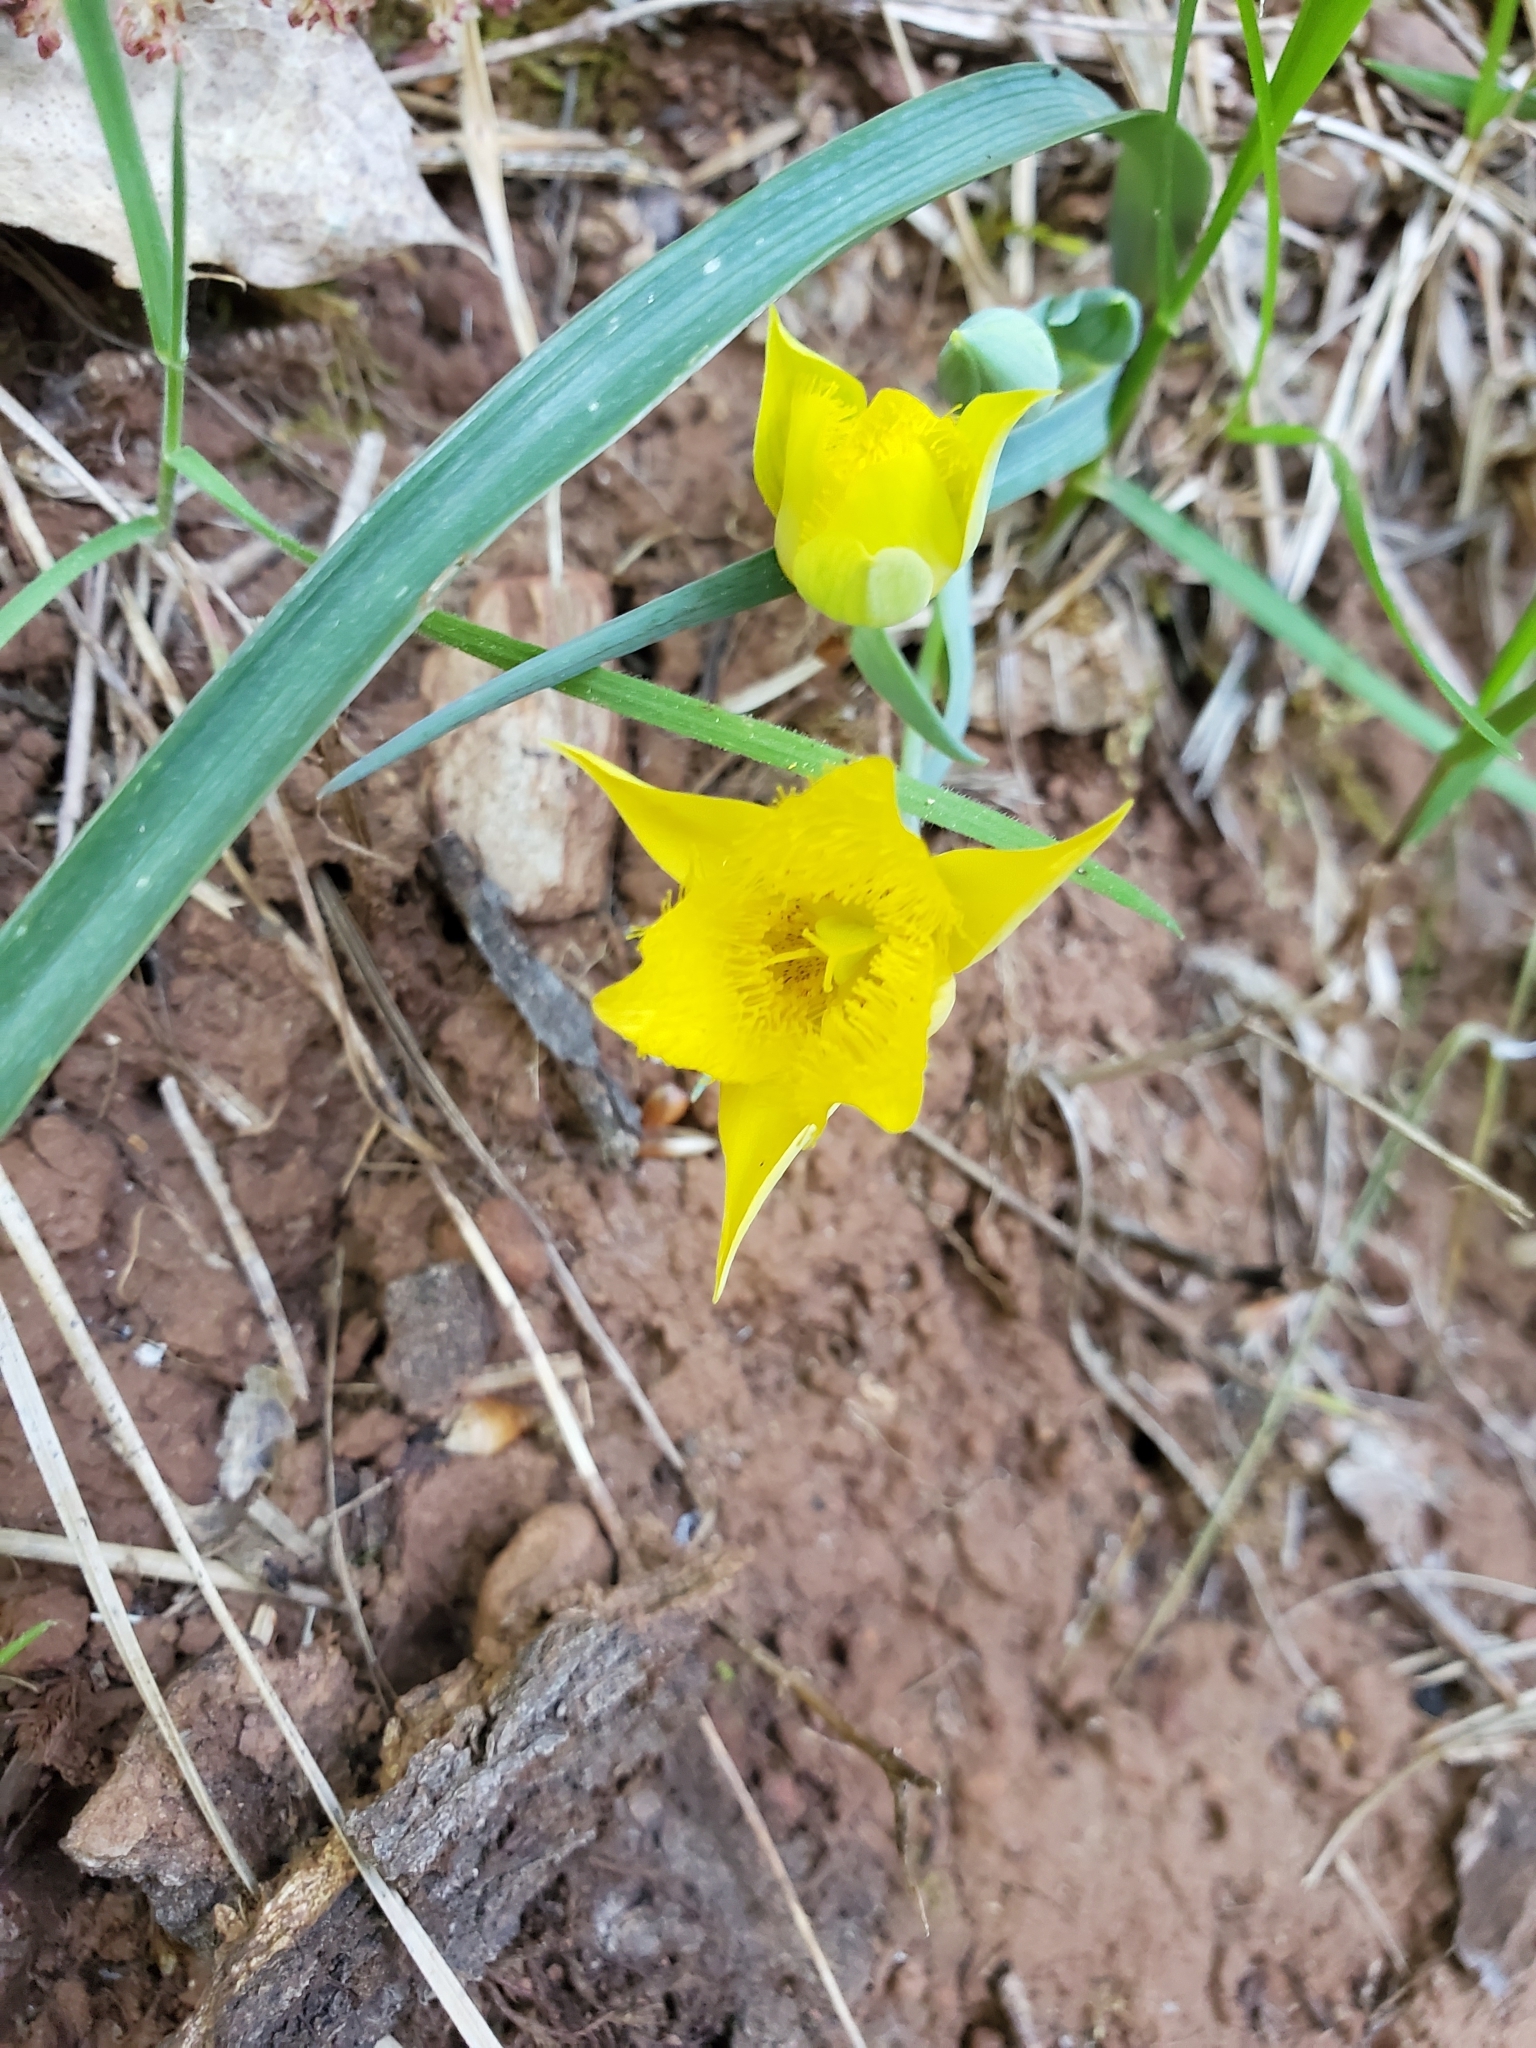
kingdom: Plantae
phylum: Tracheophyta
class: Liliopsida
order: Liliales
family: Liliaceae
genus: Calochortus
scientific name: Calochortus monophyllus
